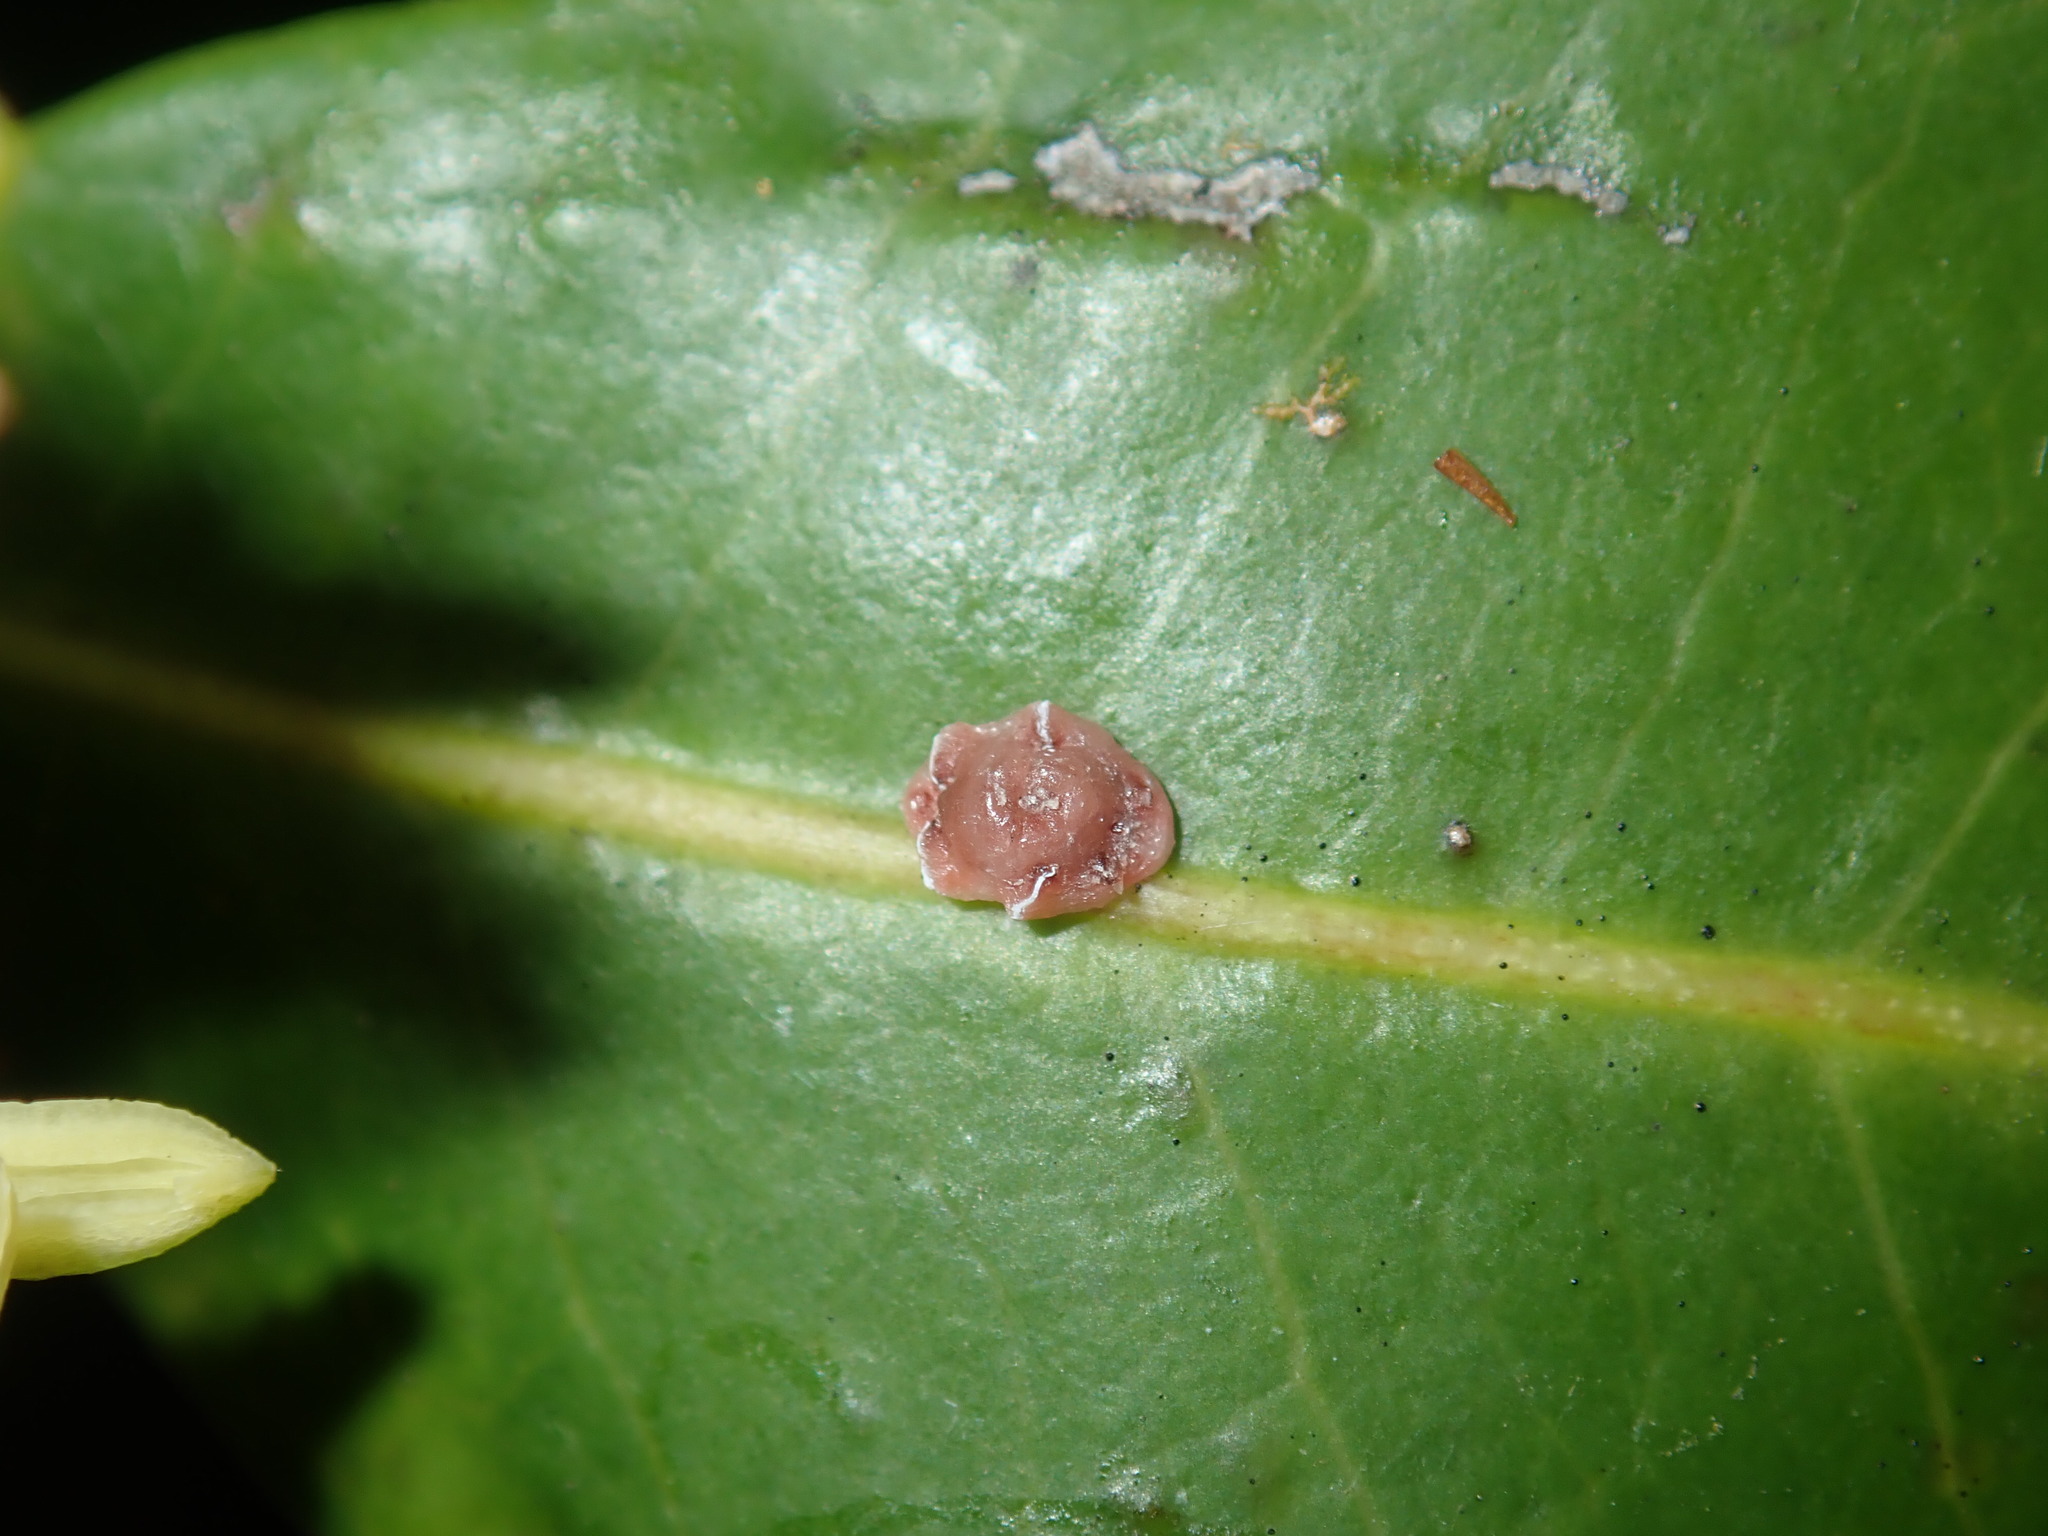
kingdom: Animalia
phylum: Arthropoda
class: Insecta
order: Hemiptera
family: Coccidae
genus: Ceroplastes
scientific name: Ceroplastes rubens
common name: Pink wax scale
